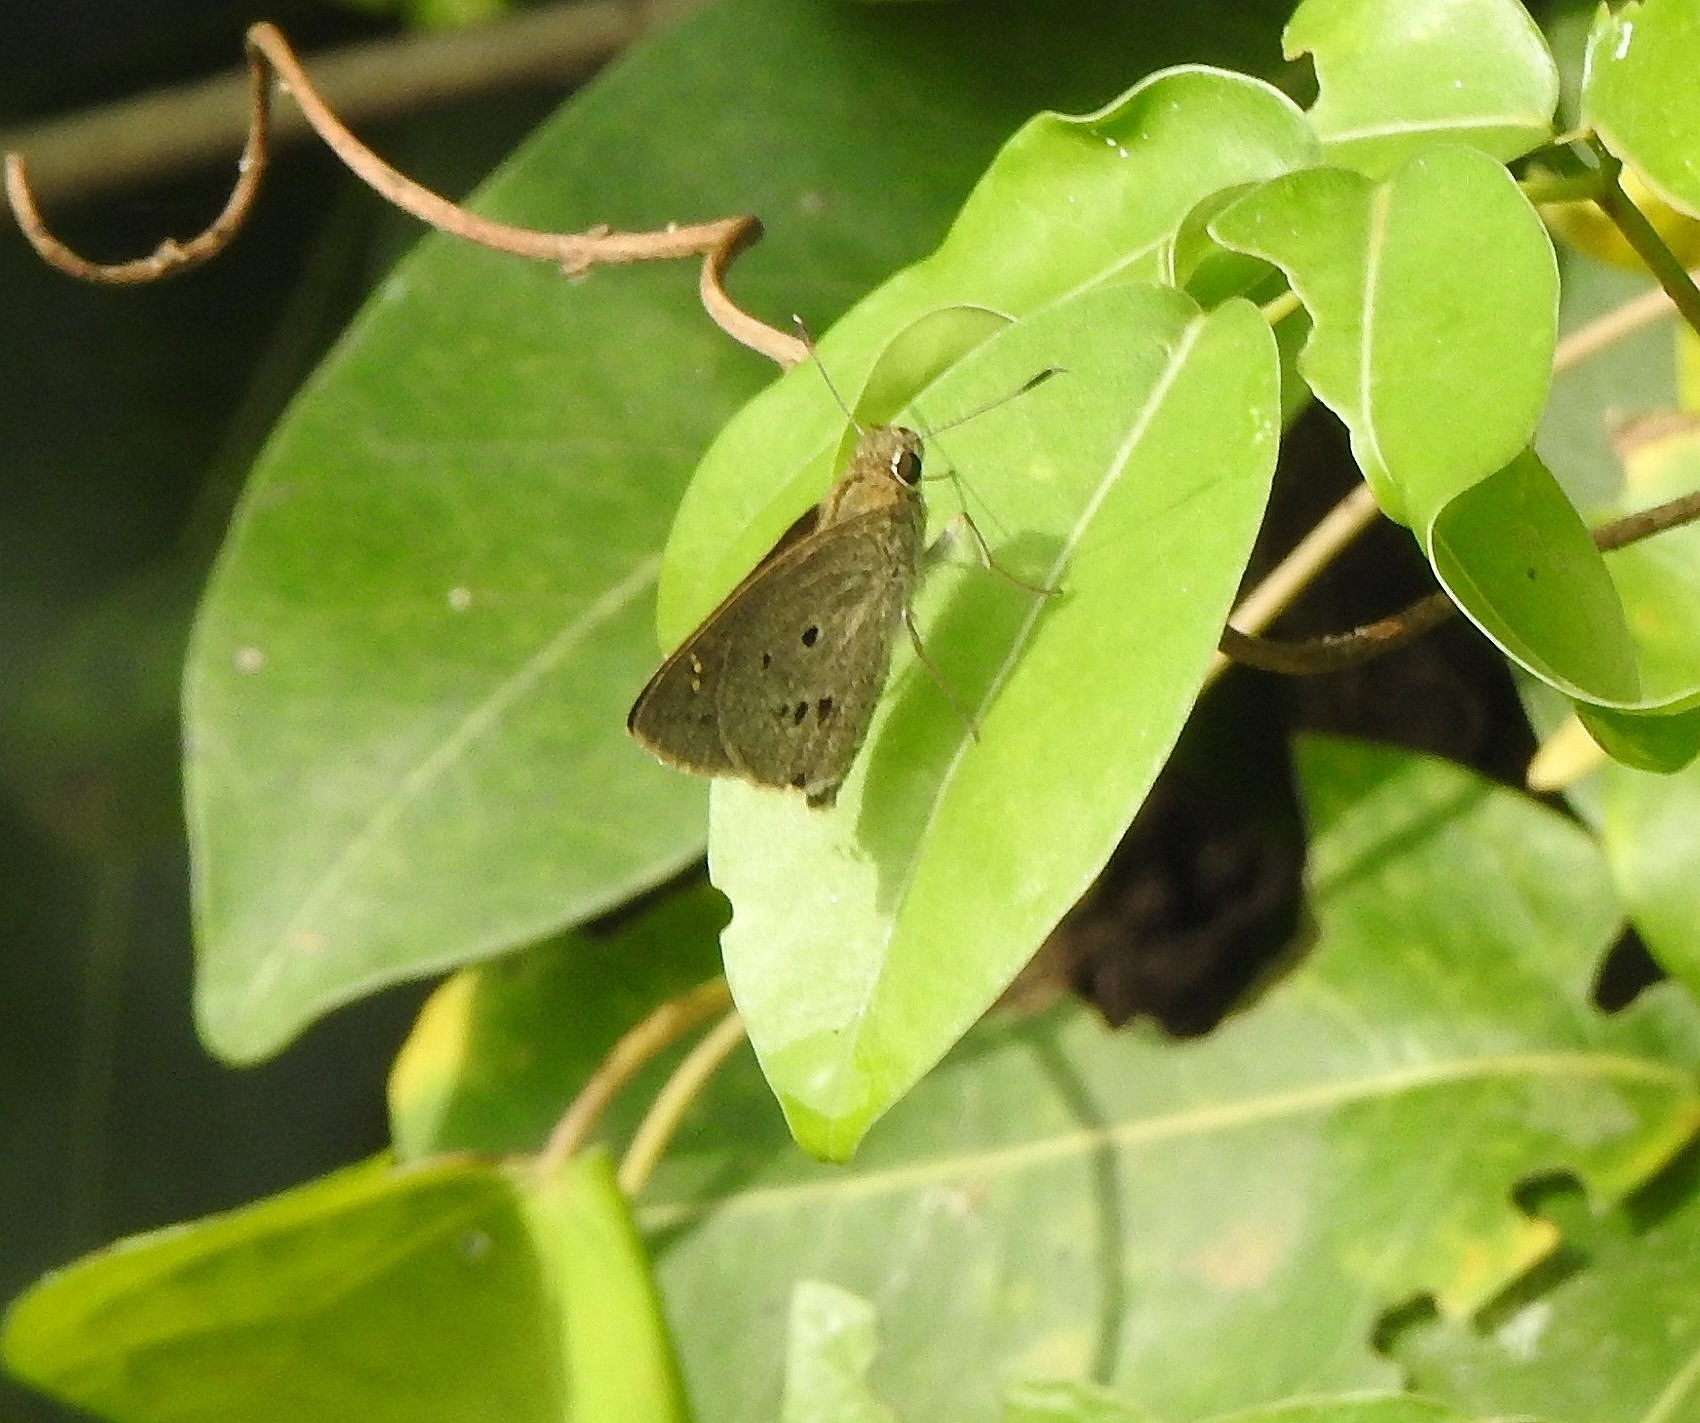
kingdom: Animalia
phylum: Arthropoda
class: Insecta
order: Lepidoptera
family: Hesperiidae
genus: Suastus
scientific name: Suastus gremius
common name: Indian palm bob
